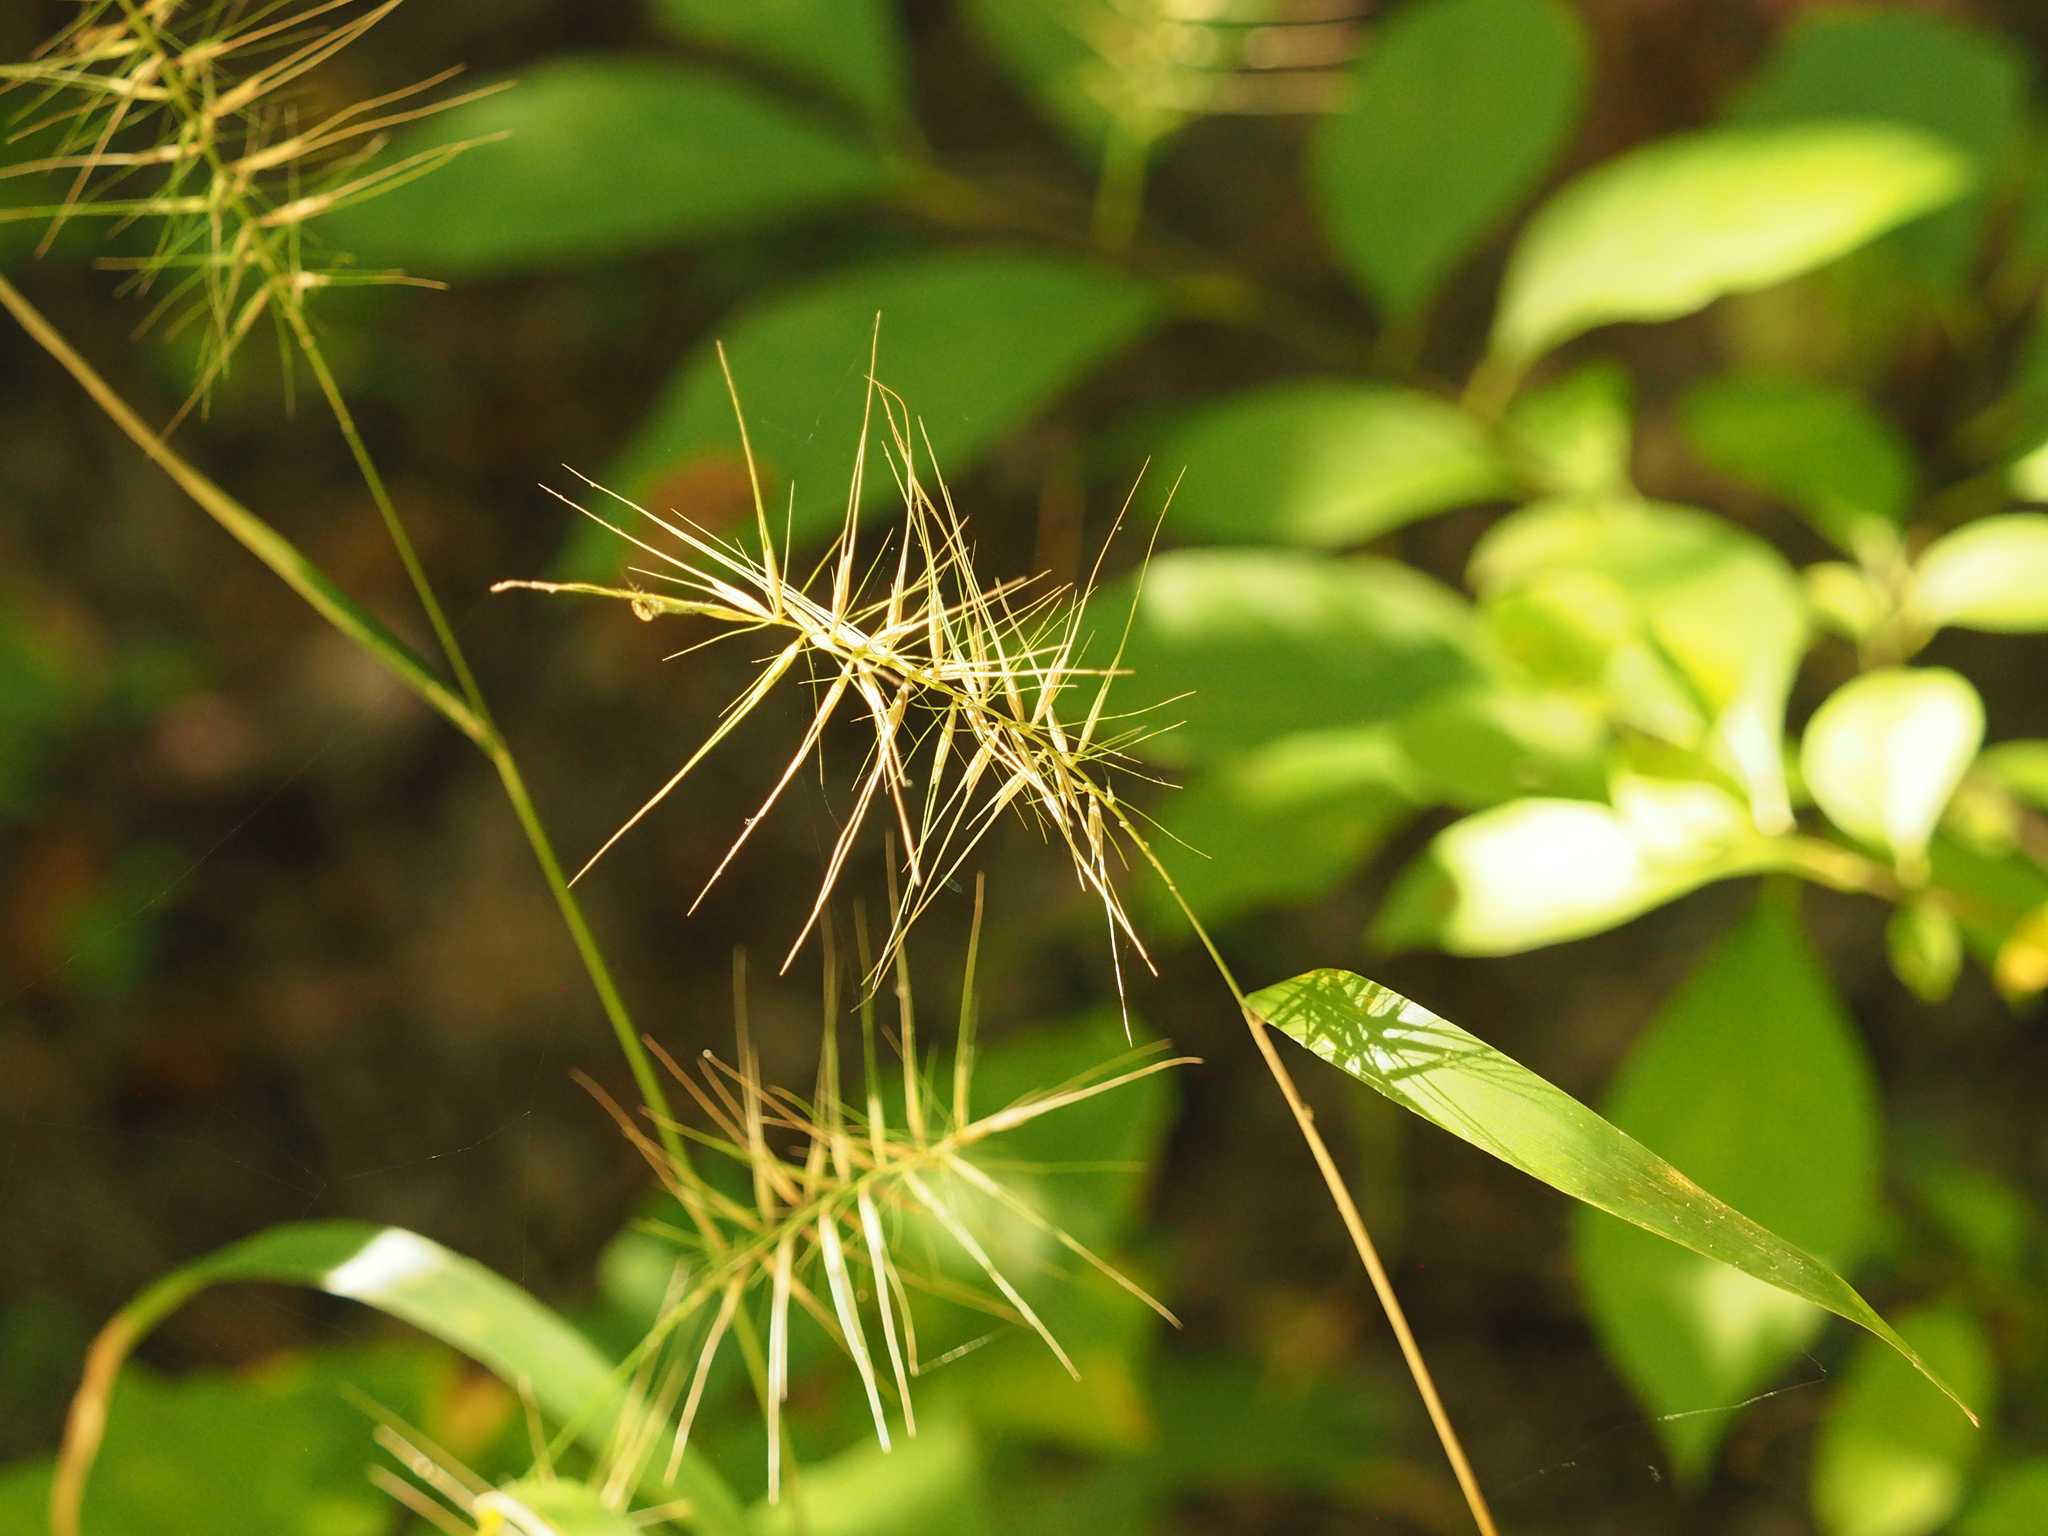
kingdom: Plantae
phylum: Tracheophyta
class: Liliopsida
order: Poales
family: Poaceae
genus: Elymus
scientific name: Elymus hystrix
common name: Bottlebrush grass
